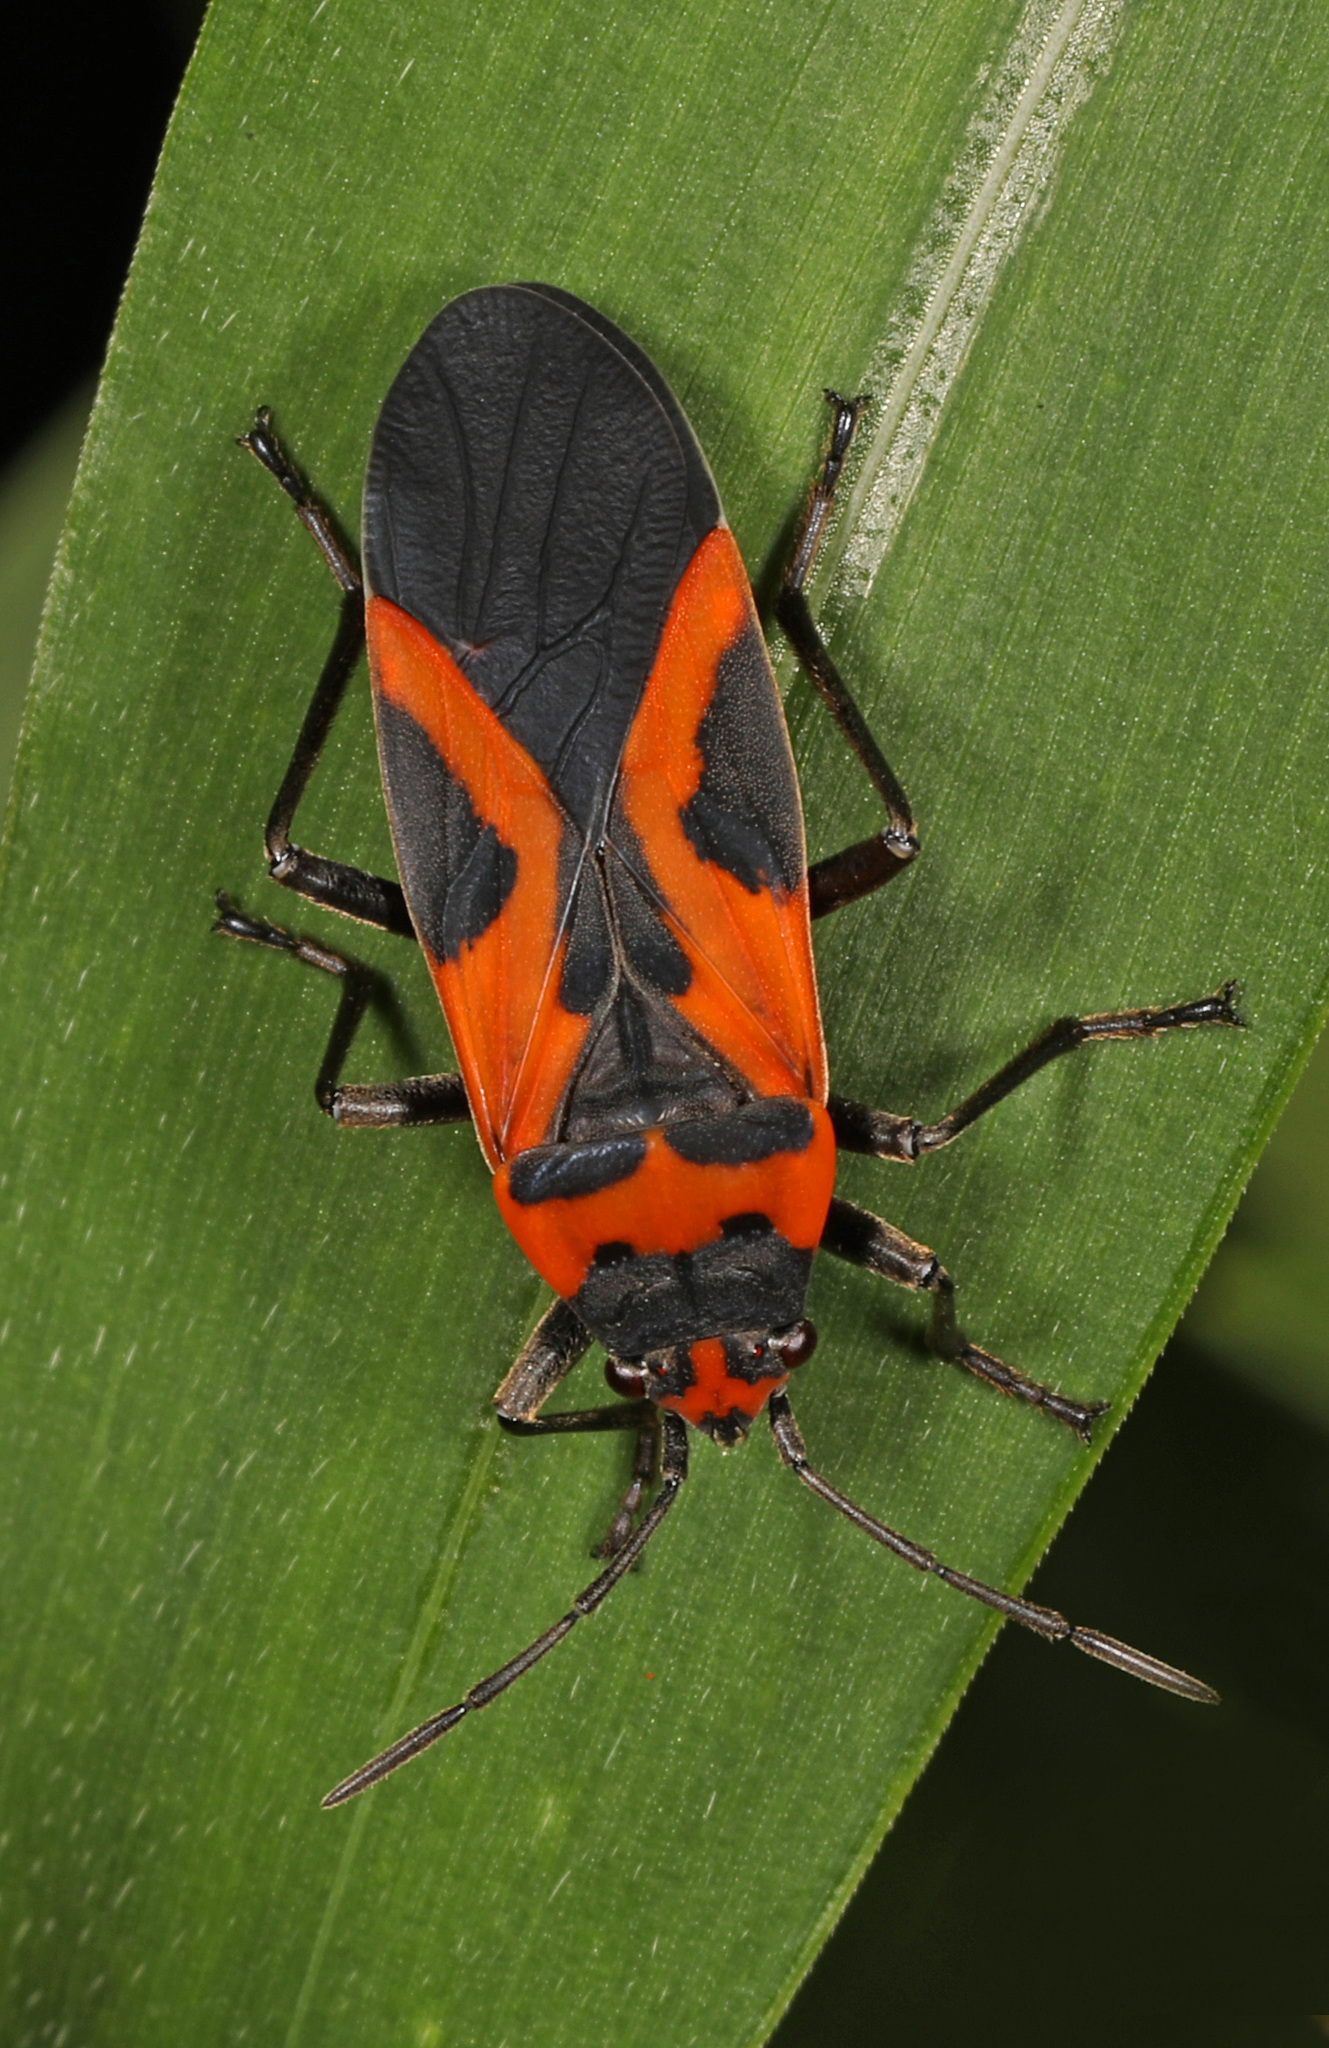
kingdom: Animalia
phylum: Arthropoda
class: Insecta
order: Hemiptera
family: Lygaeidae
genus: Lygaeus
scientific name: Lygaeus turcicus
